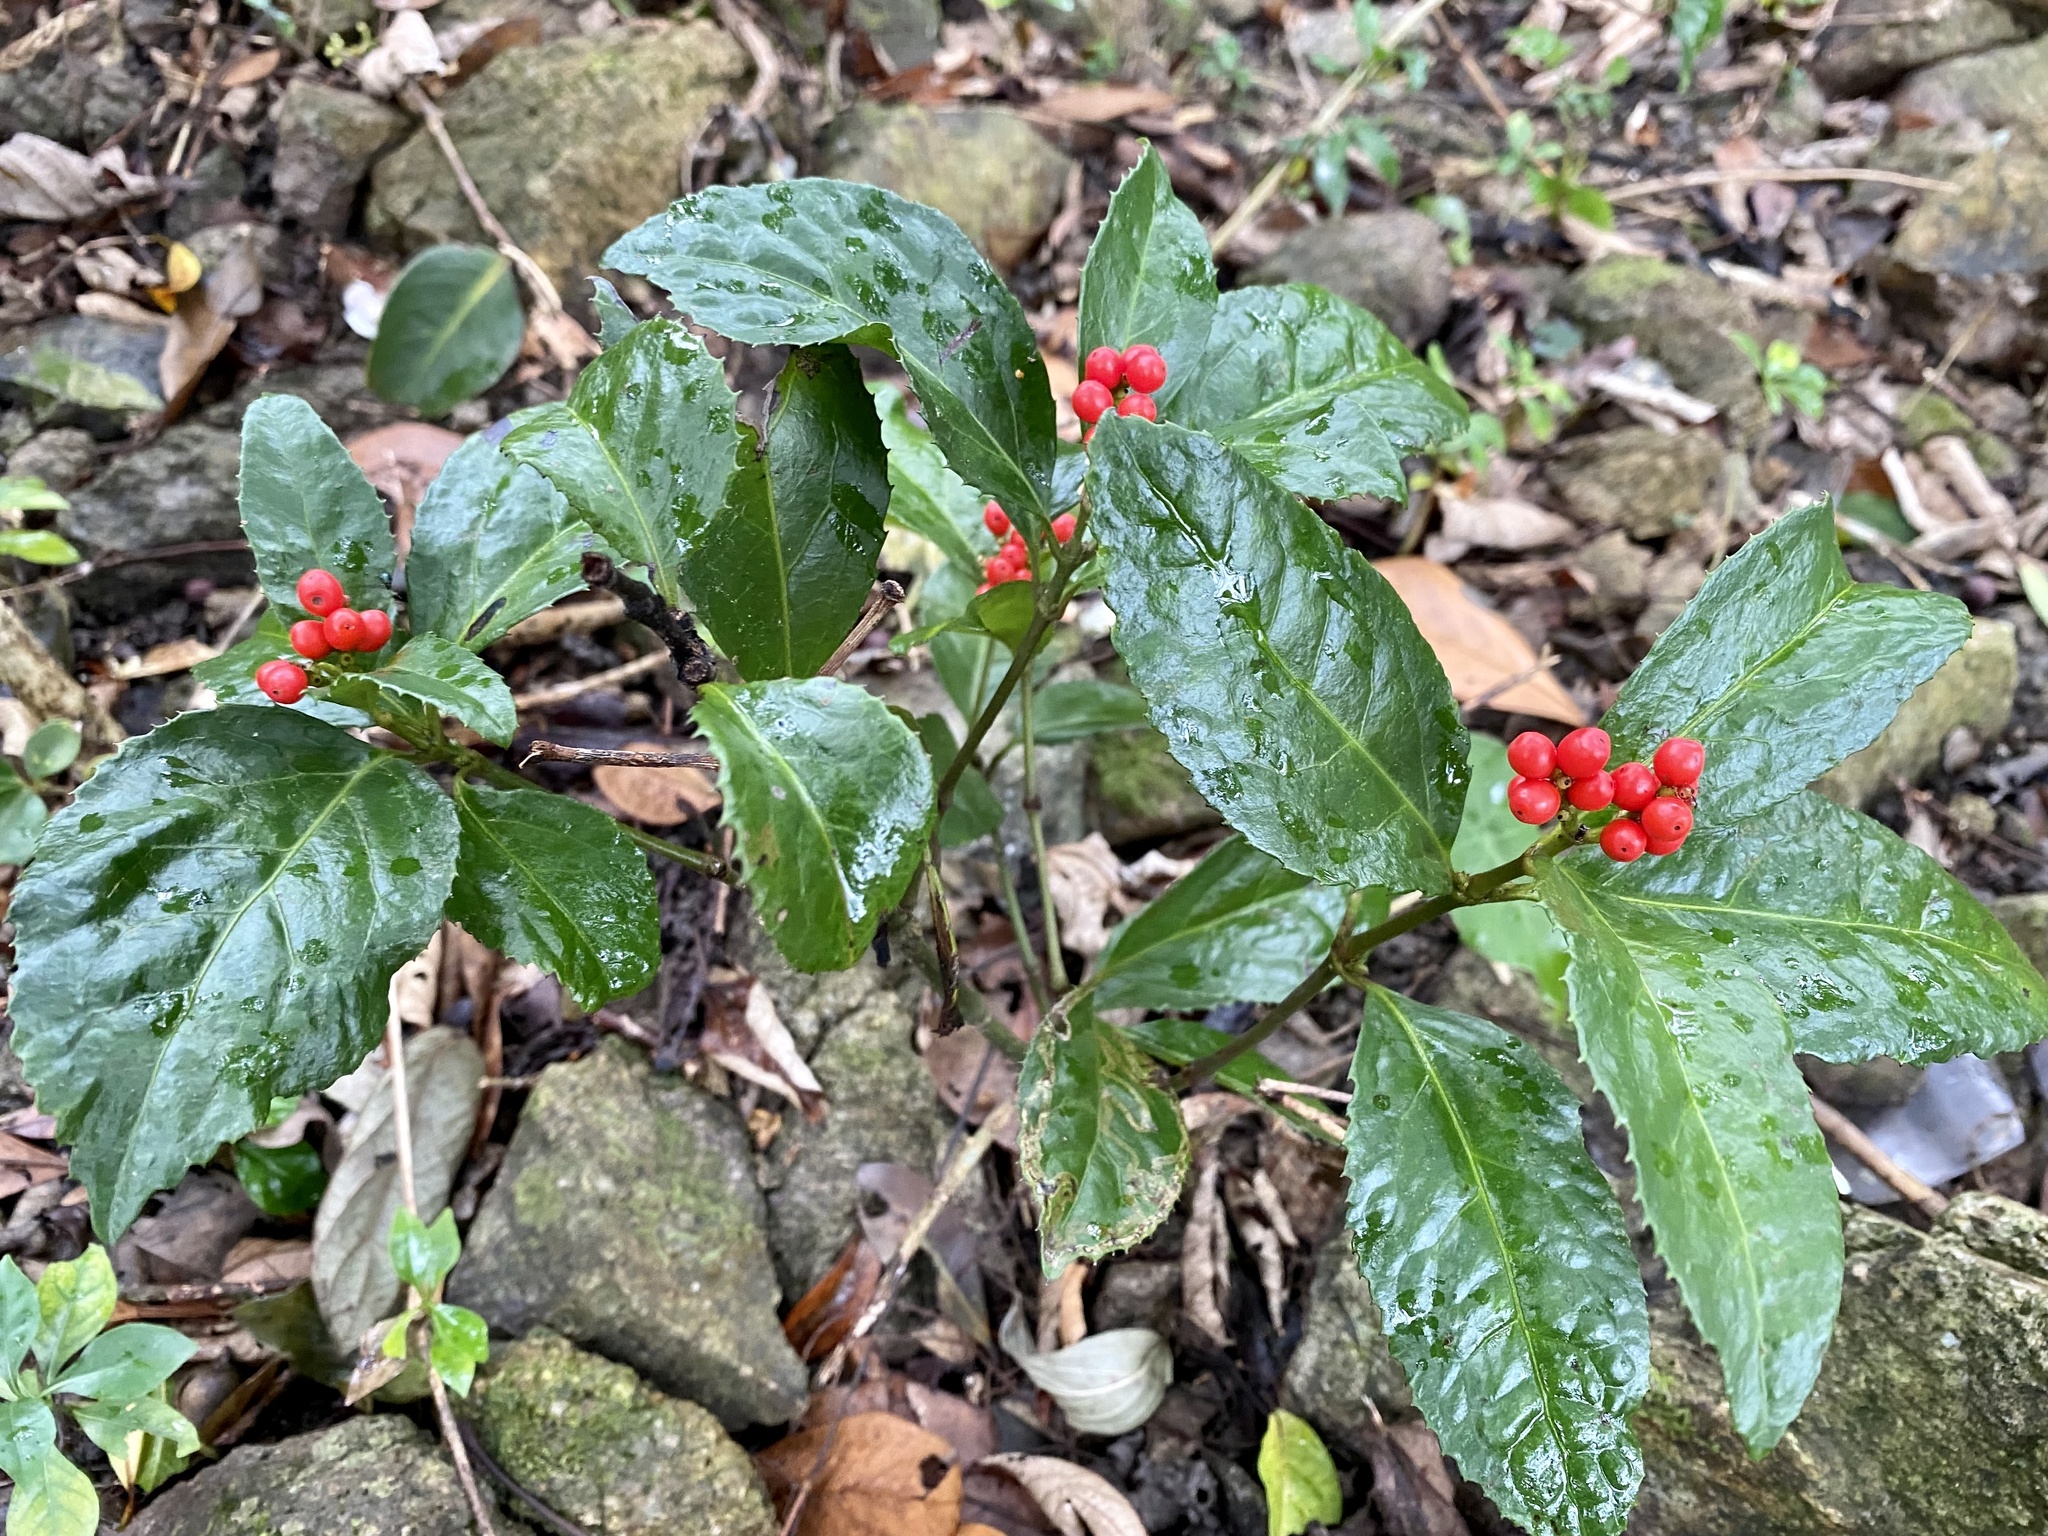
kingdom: Plantae
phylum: Tracheophyta
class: Magnoliopsida
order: Chloranthales
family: Chloranthaceae
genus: Sarcandra
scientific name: Sarcandra glabra
